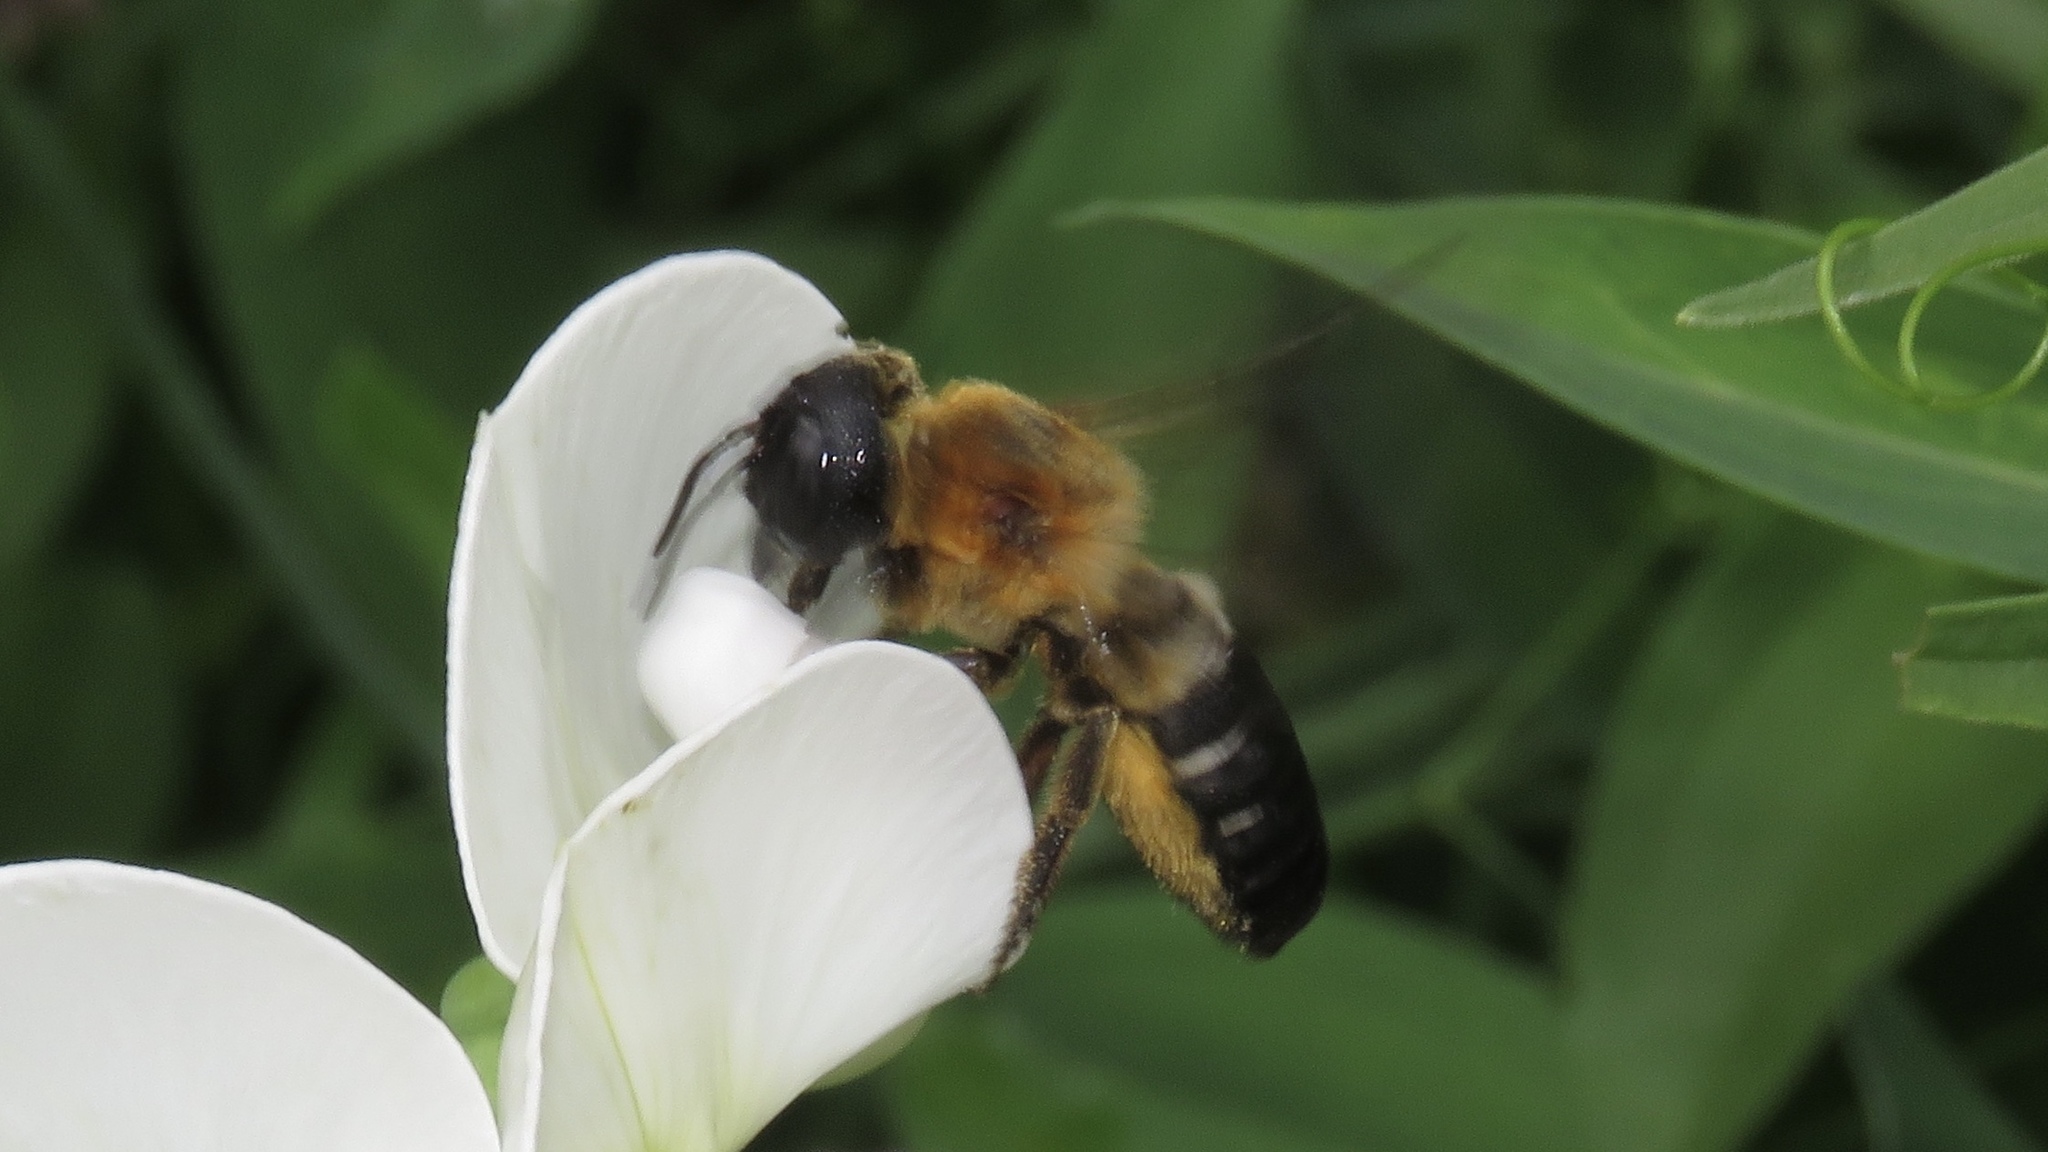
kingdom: Animalia
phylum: Arthropoda
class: Insecta
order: Hymenoptera
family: Megachilidae
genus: Megachile
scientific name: Megachile sculpturalis
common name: Sculptured resin bee
